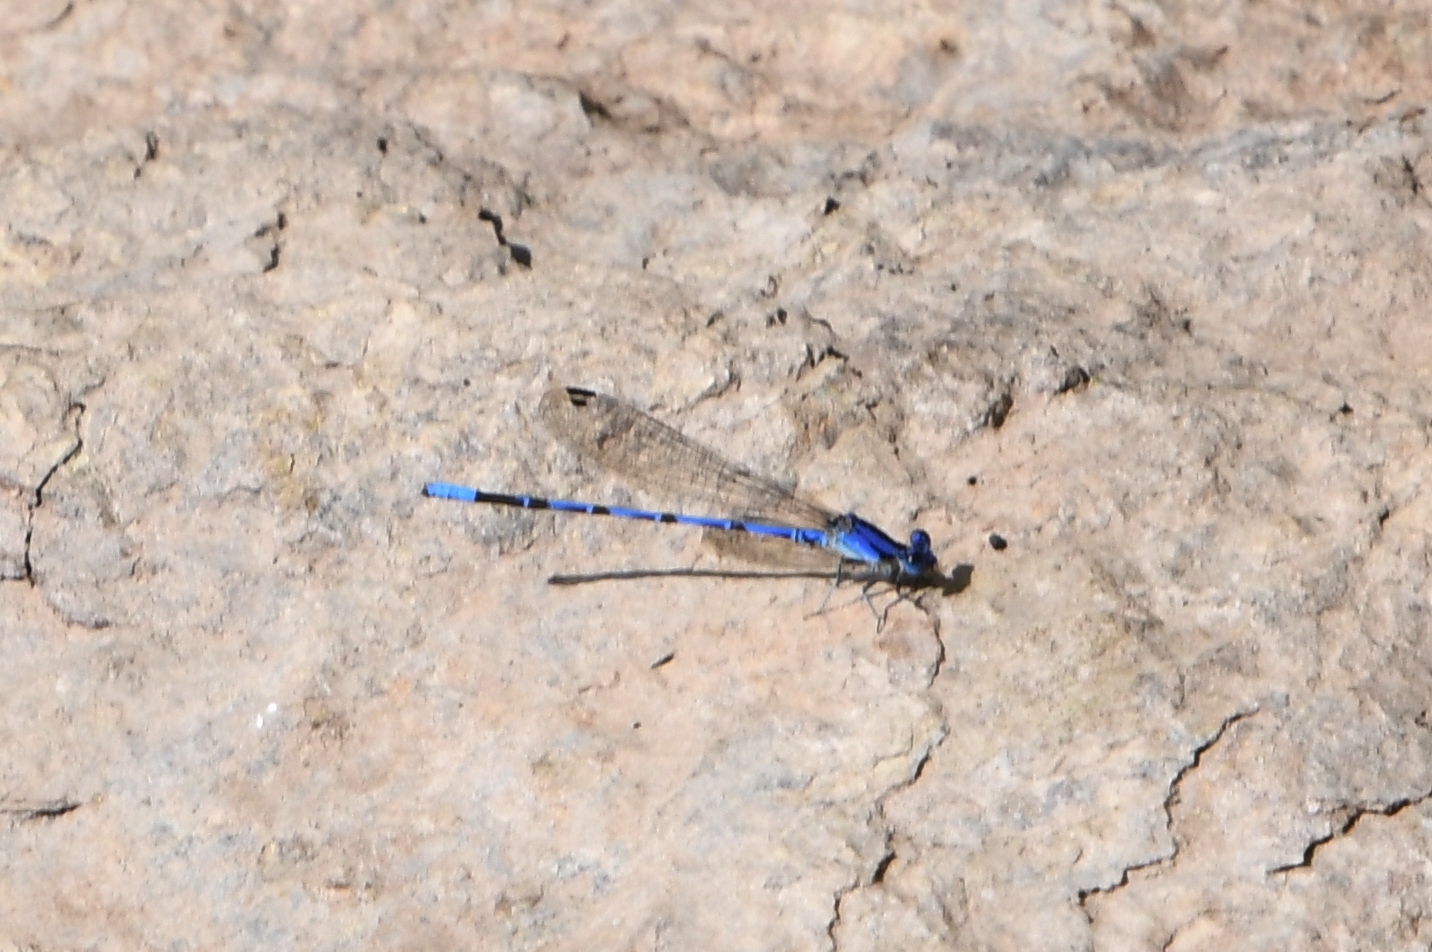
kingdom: Animalia
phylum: Arthropoda
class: Insecta
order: Odonata
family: Coenagrionidae
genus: Argia
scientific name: Argia extranea
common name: Spine-tipped dancer
